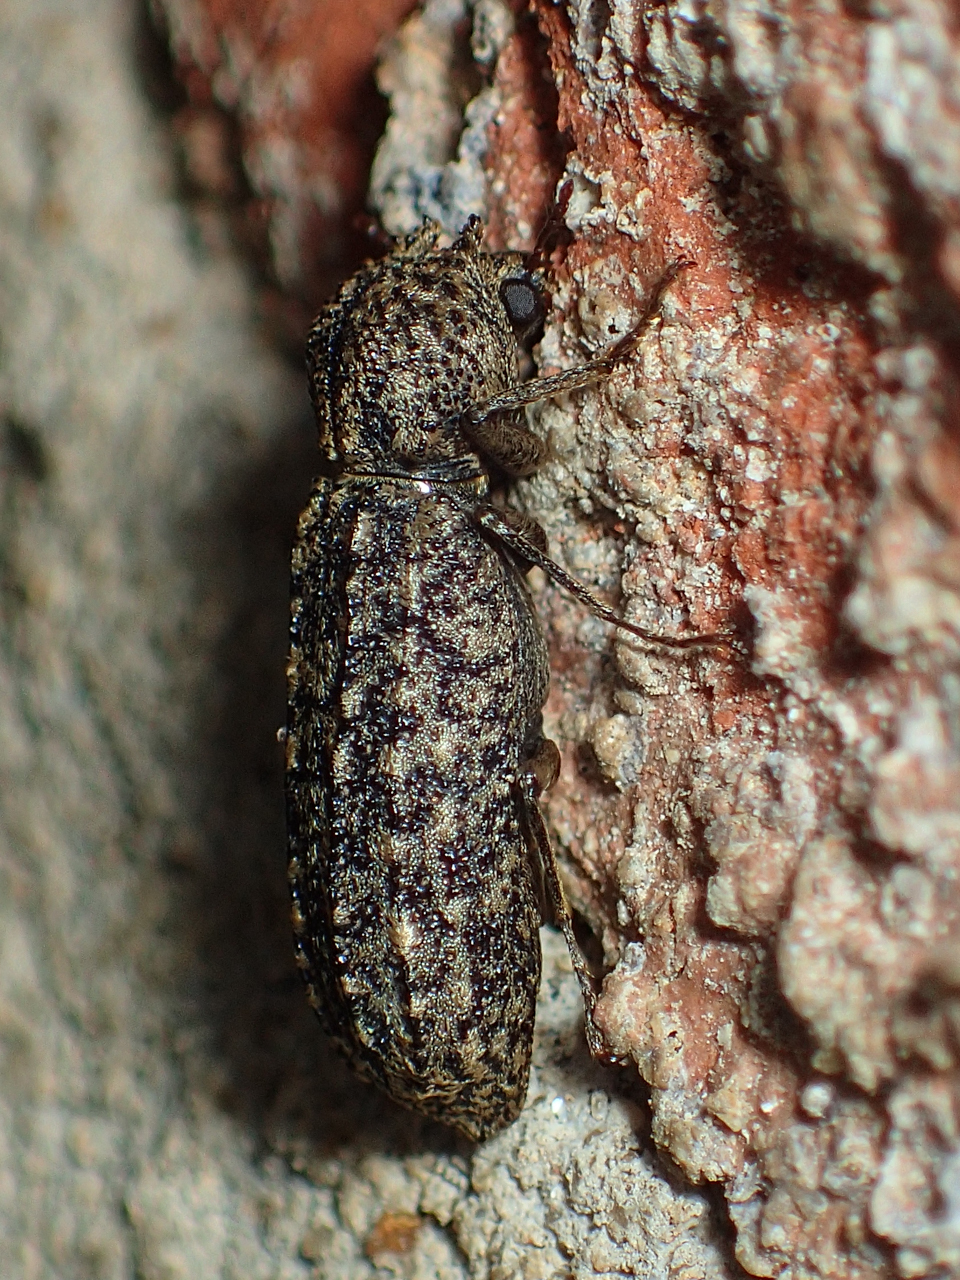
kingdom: Animalia
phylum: Arthropoda
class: Insecta
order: Coleoptera
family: Bostrichidae
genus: Lichenophanes
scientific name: Lichenophanes bicornis
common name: Two-horned powder-post beetle
